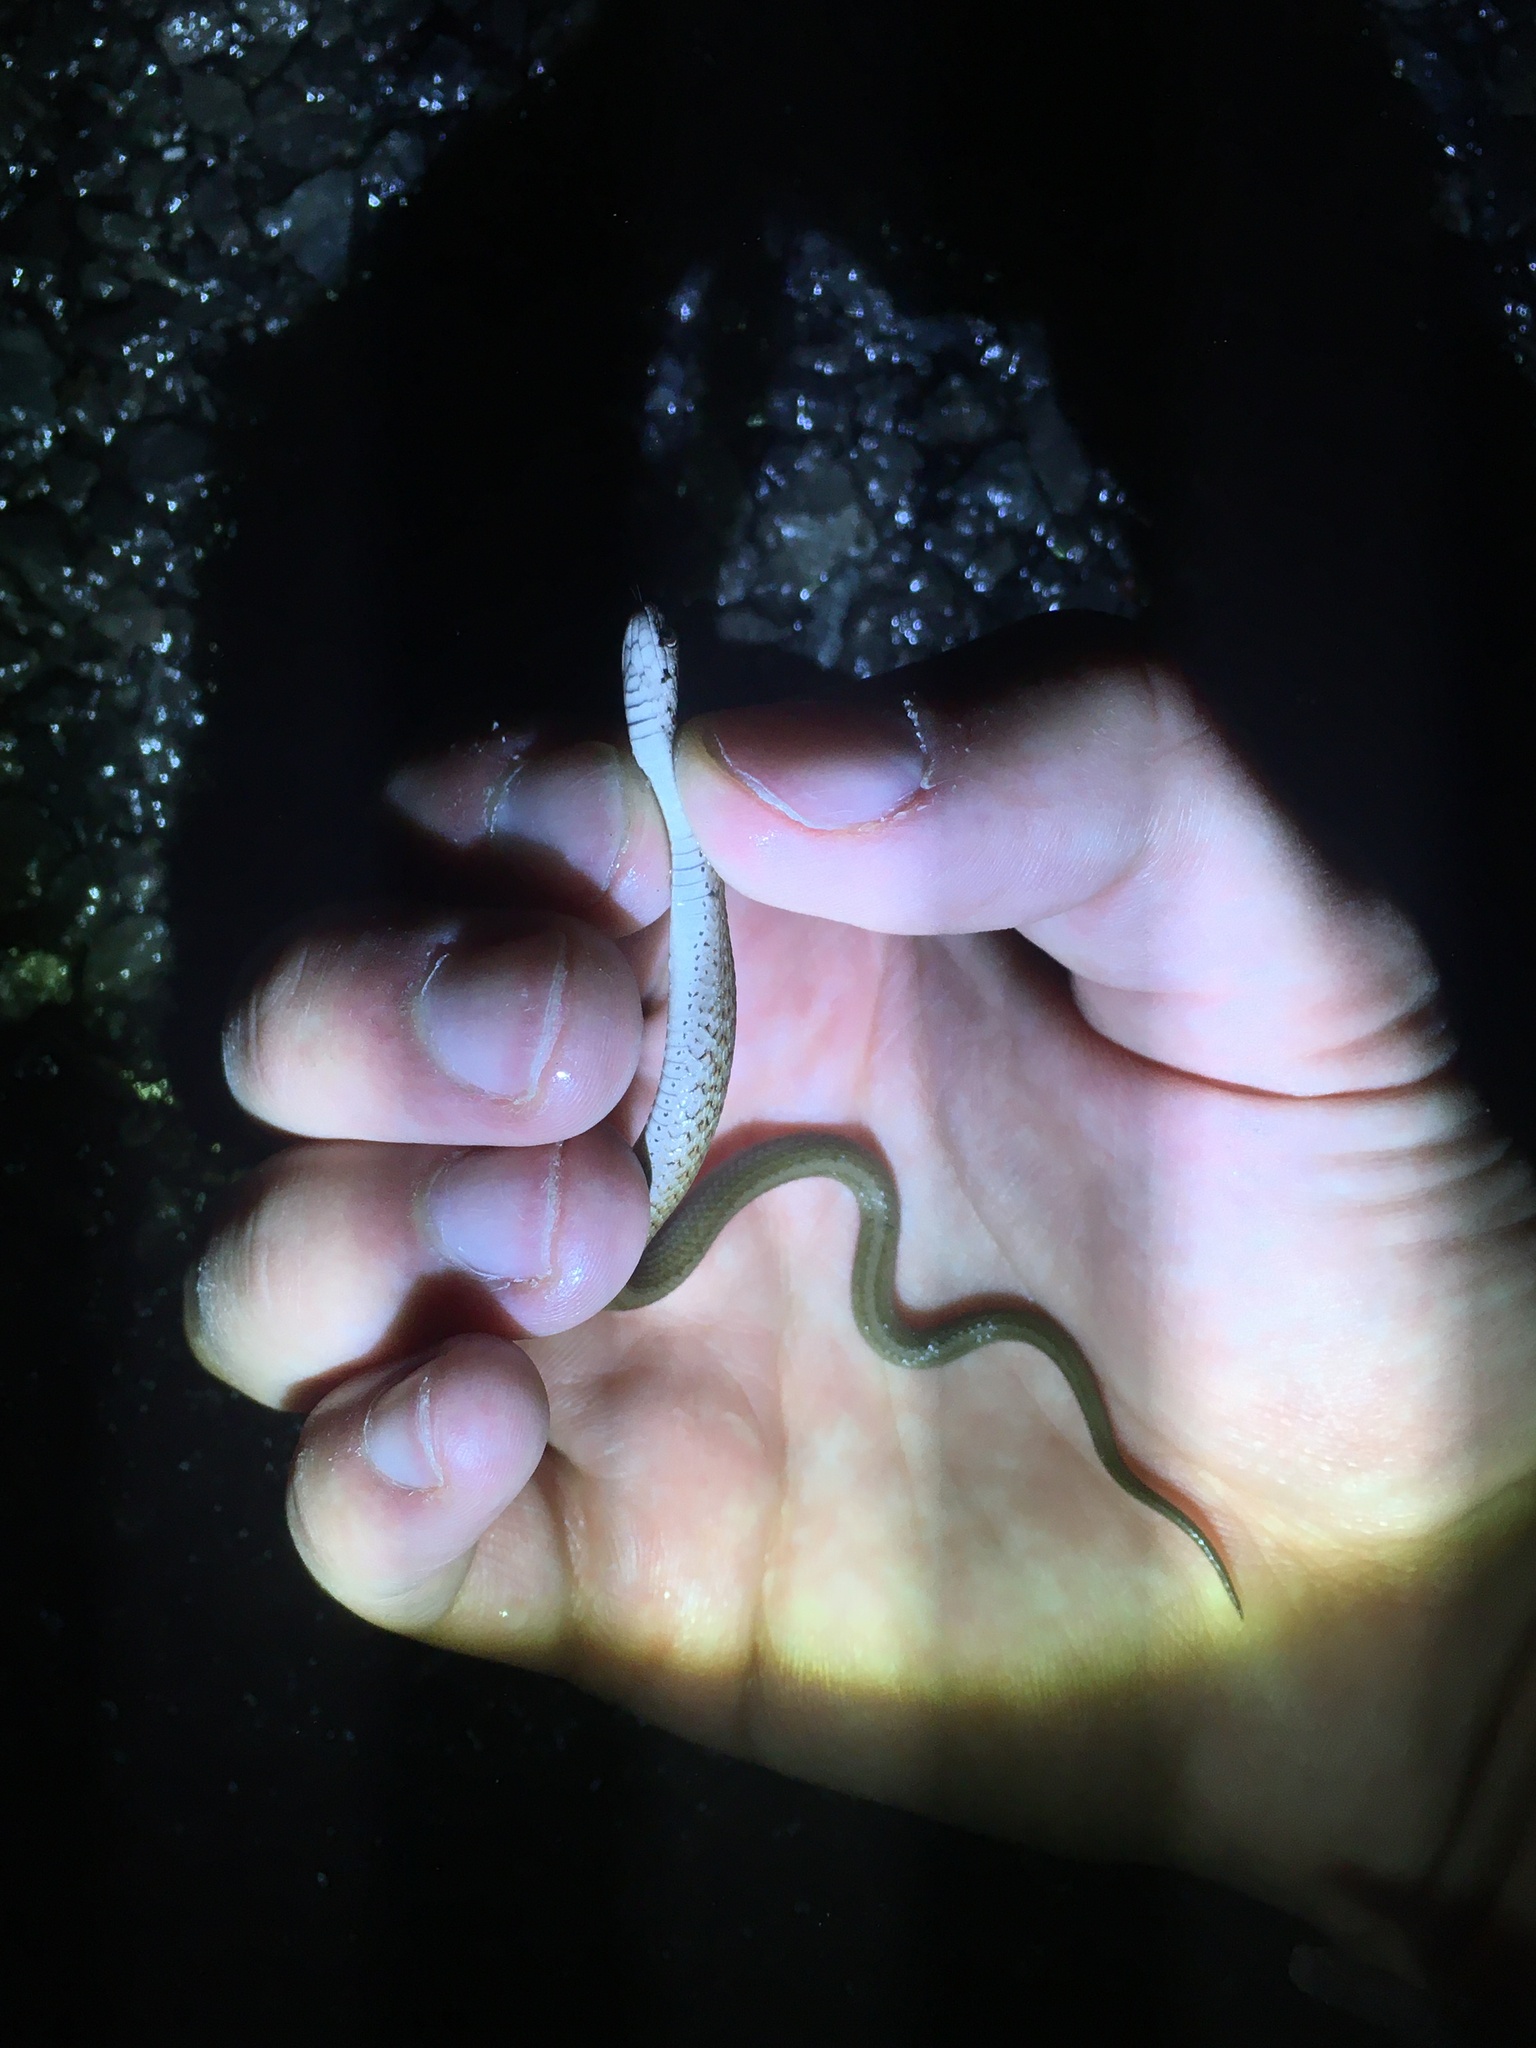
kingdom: Animalia
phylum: Chordata
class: Squamata
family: Colubridae
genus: Storeria
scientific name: Storeria dekayi
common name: (dekay’s) brown snake
